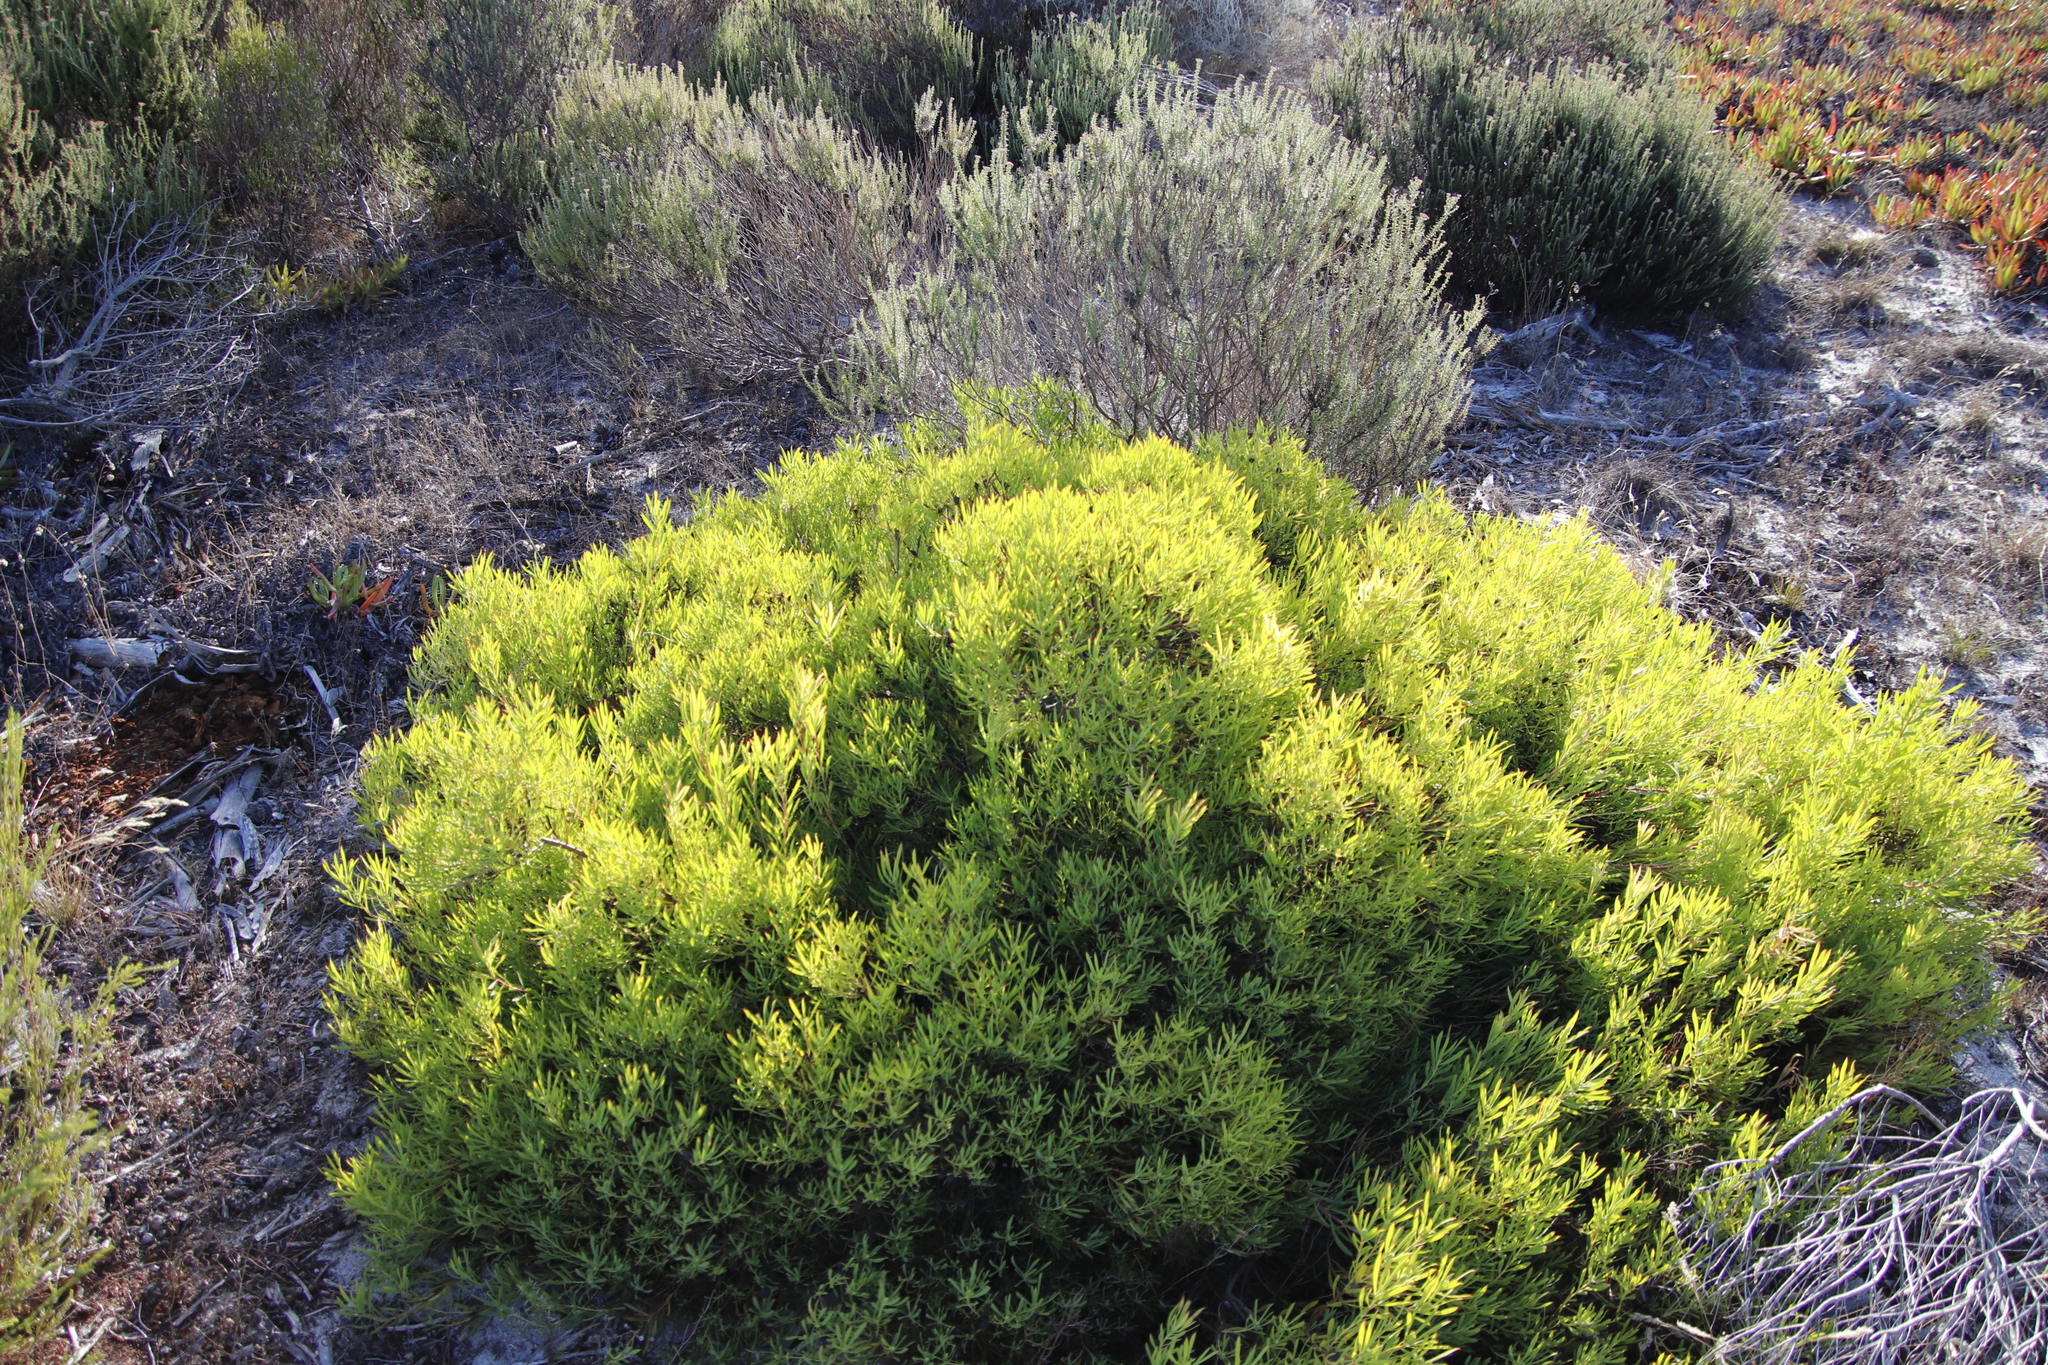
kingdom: Plantae
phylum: Tracheophyta
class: Magnoliopsida
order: Proteales
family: Proteaceae
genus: Leucadendron
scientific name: Leucadendron salignum
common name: Common sunshine conebush
